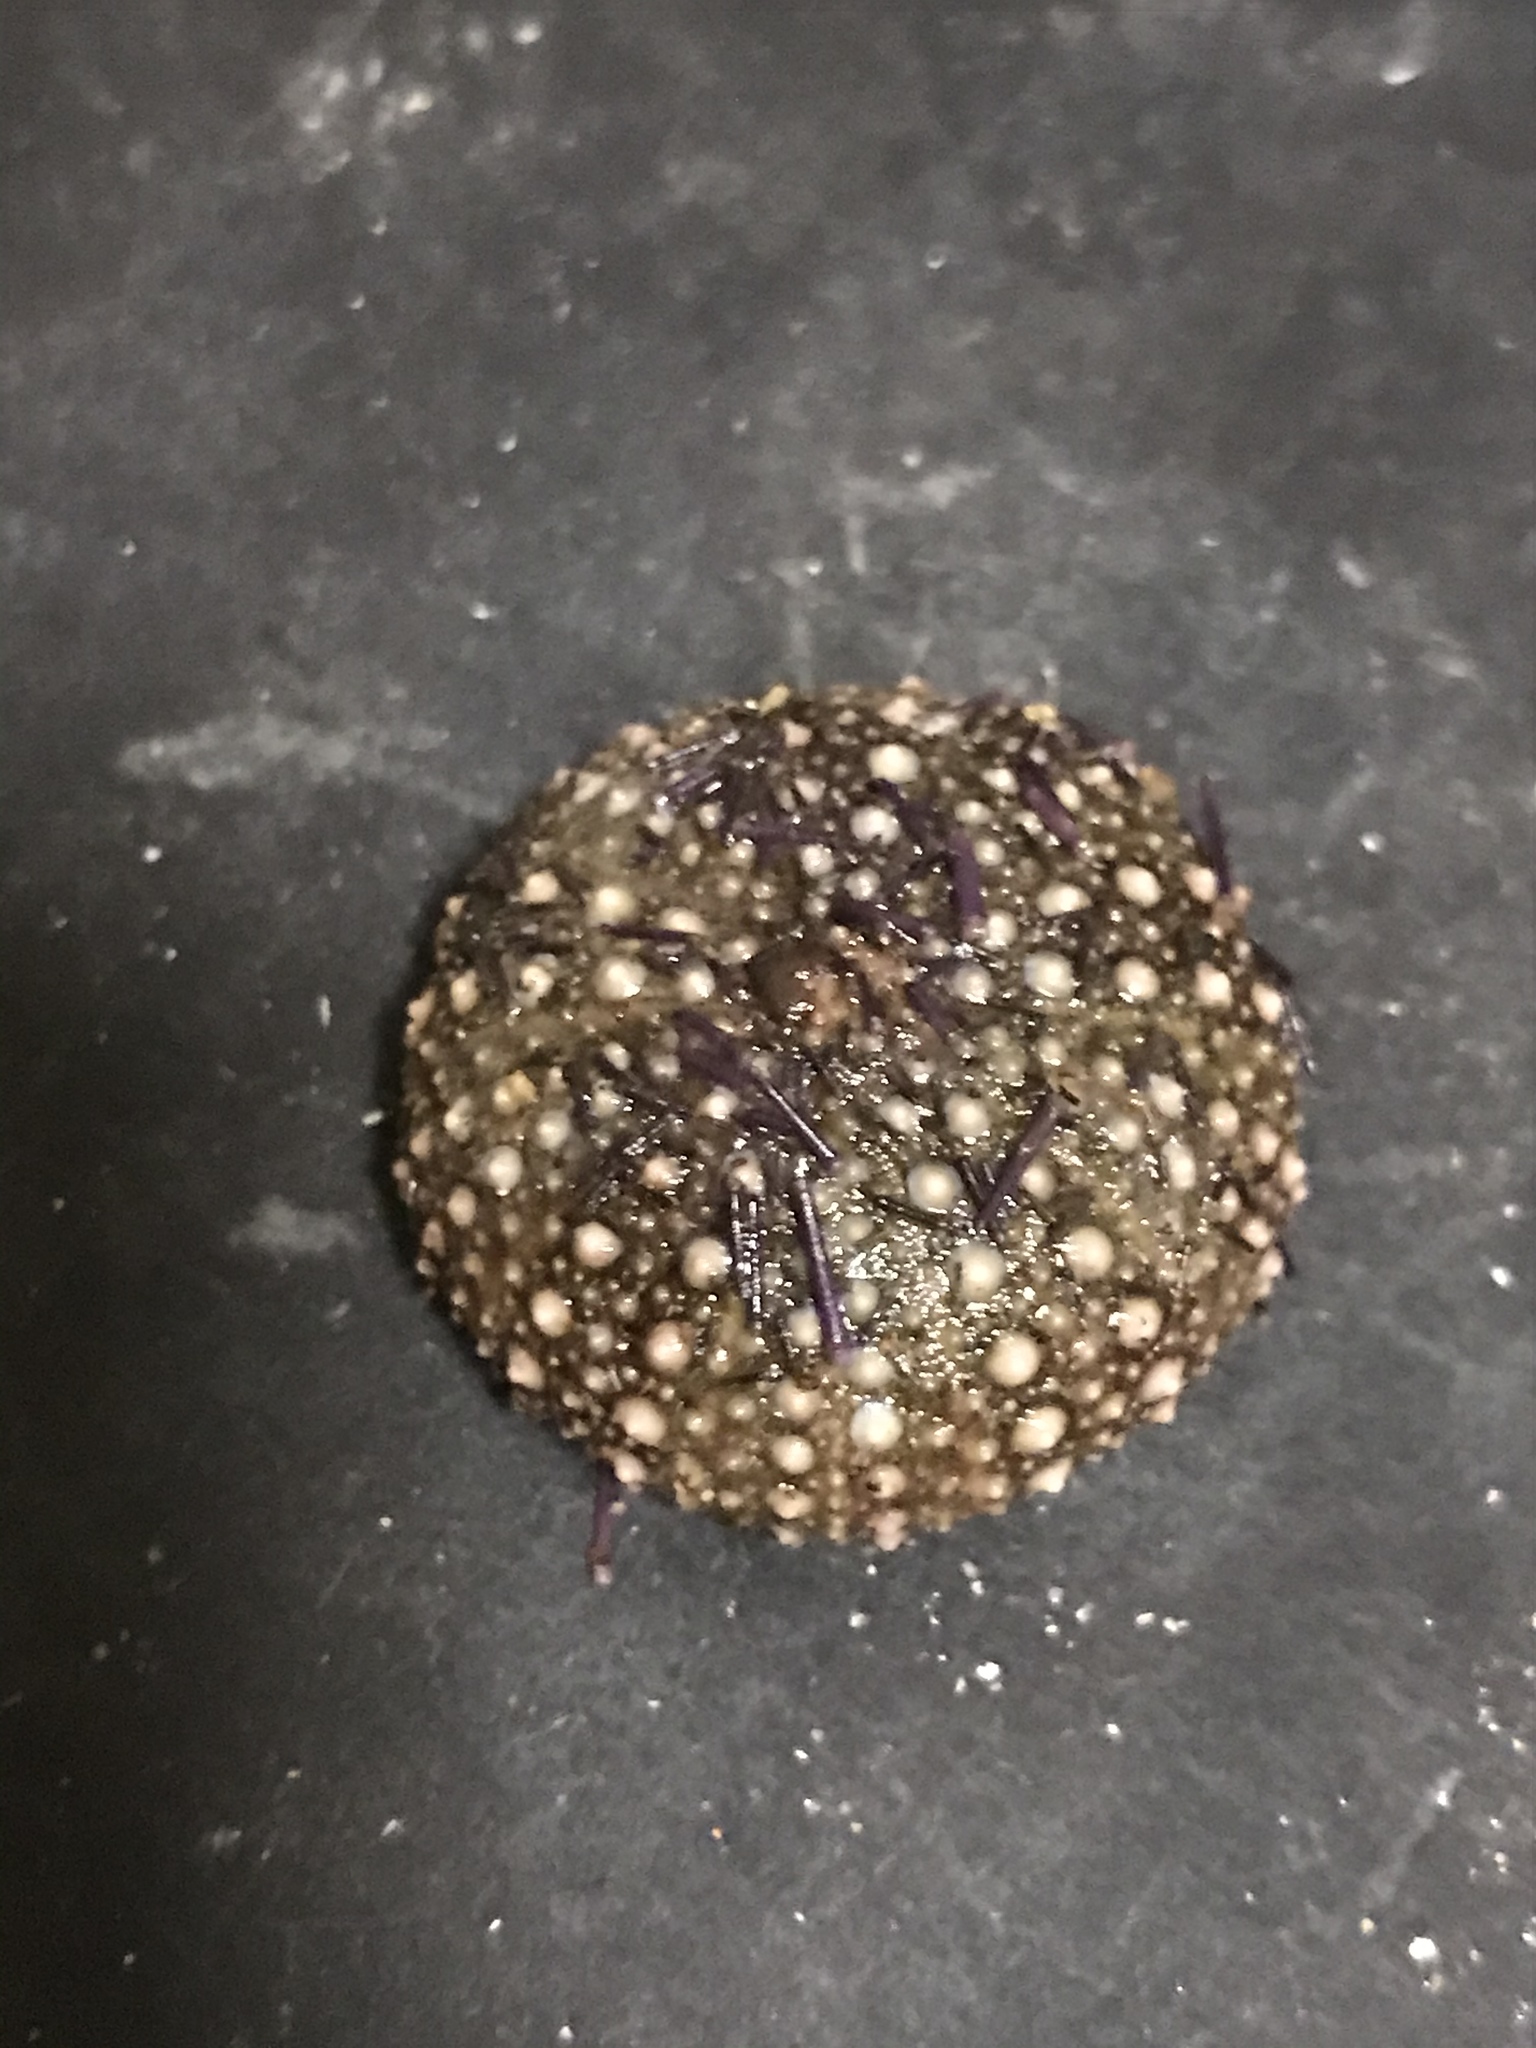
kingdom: Animalia
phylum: Echinodermata
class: Echinoidea
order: Camarodonta
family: Strongylocentrotidae
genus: Strongylocentrotus
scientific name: Strongylocentrotus purpuratus
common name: Purple sea urchin
